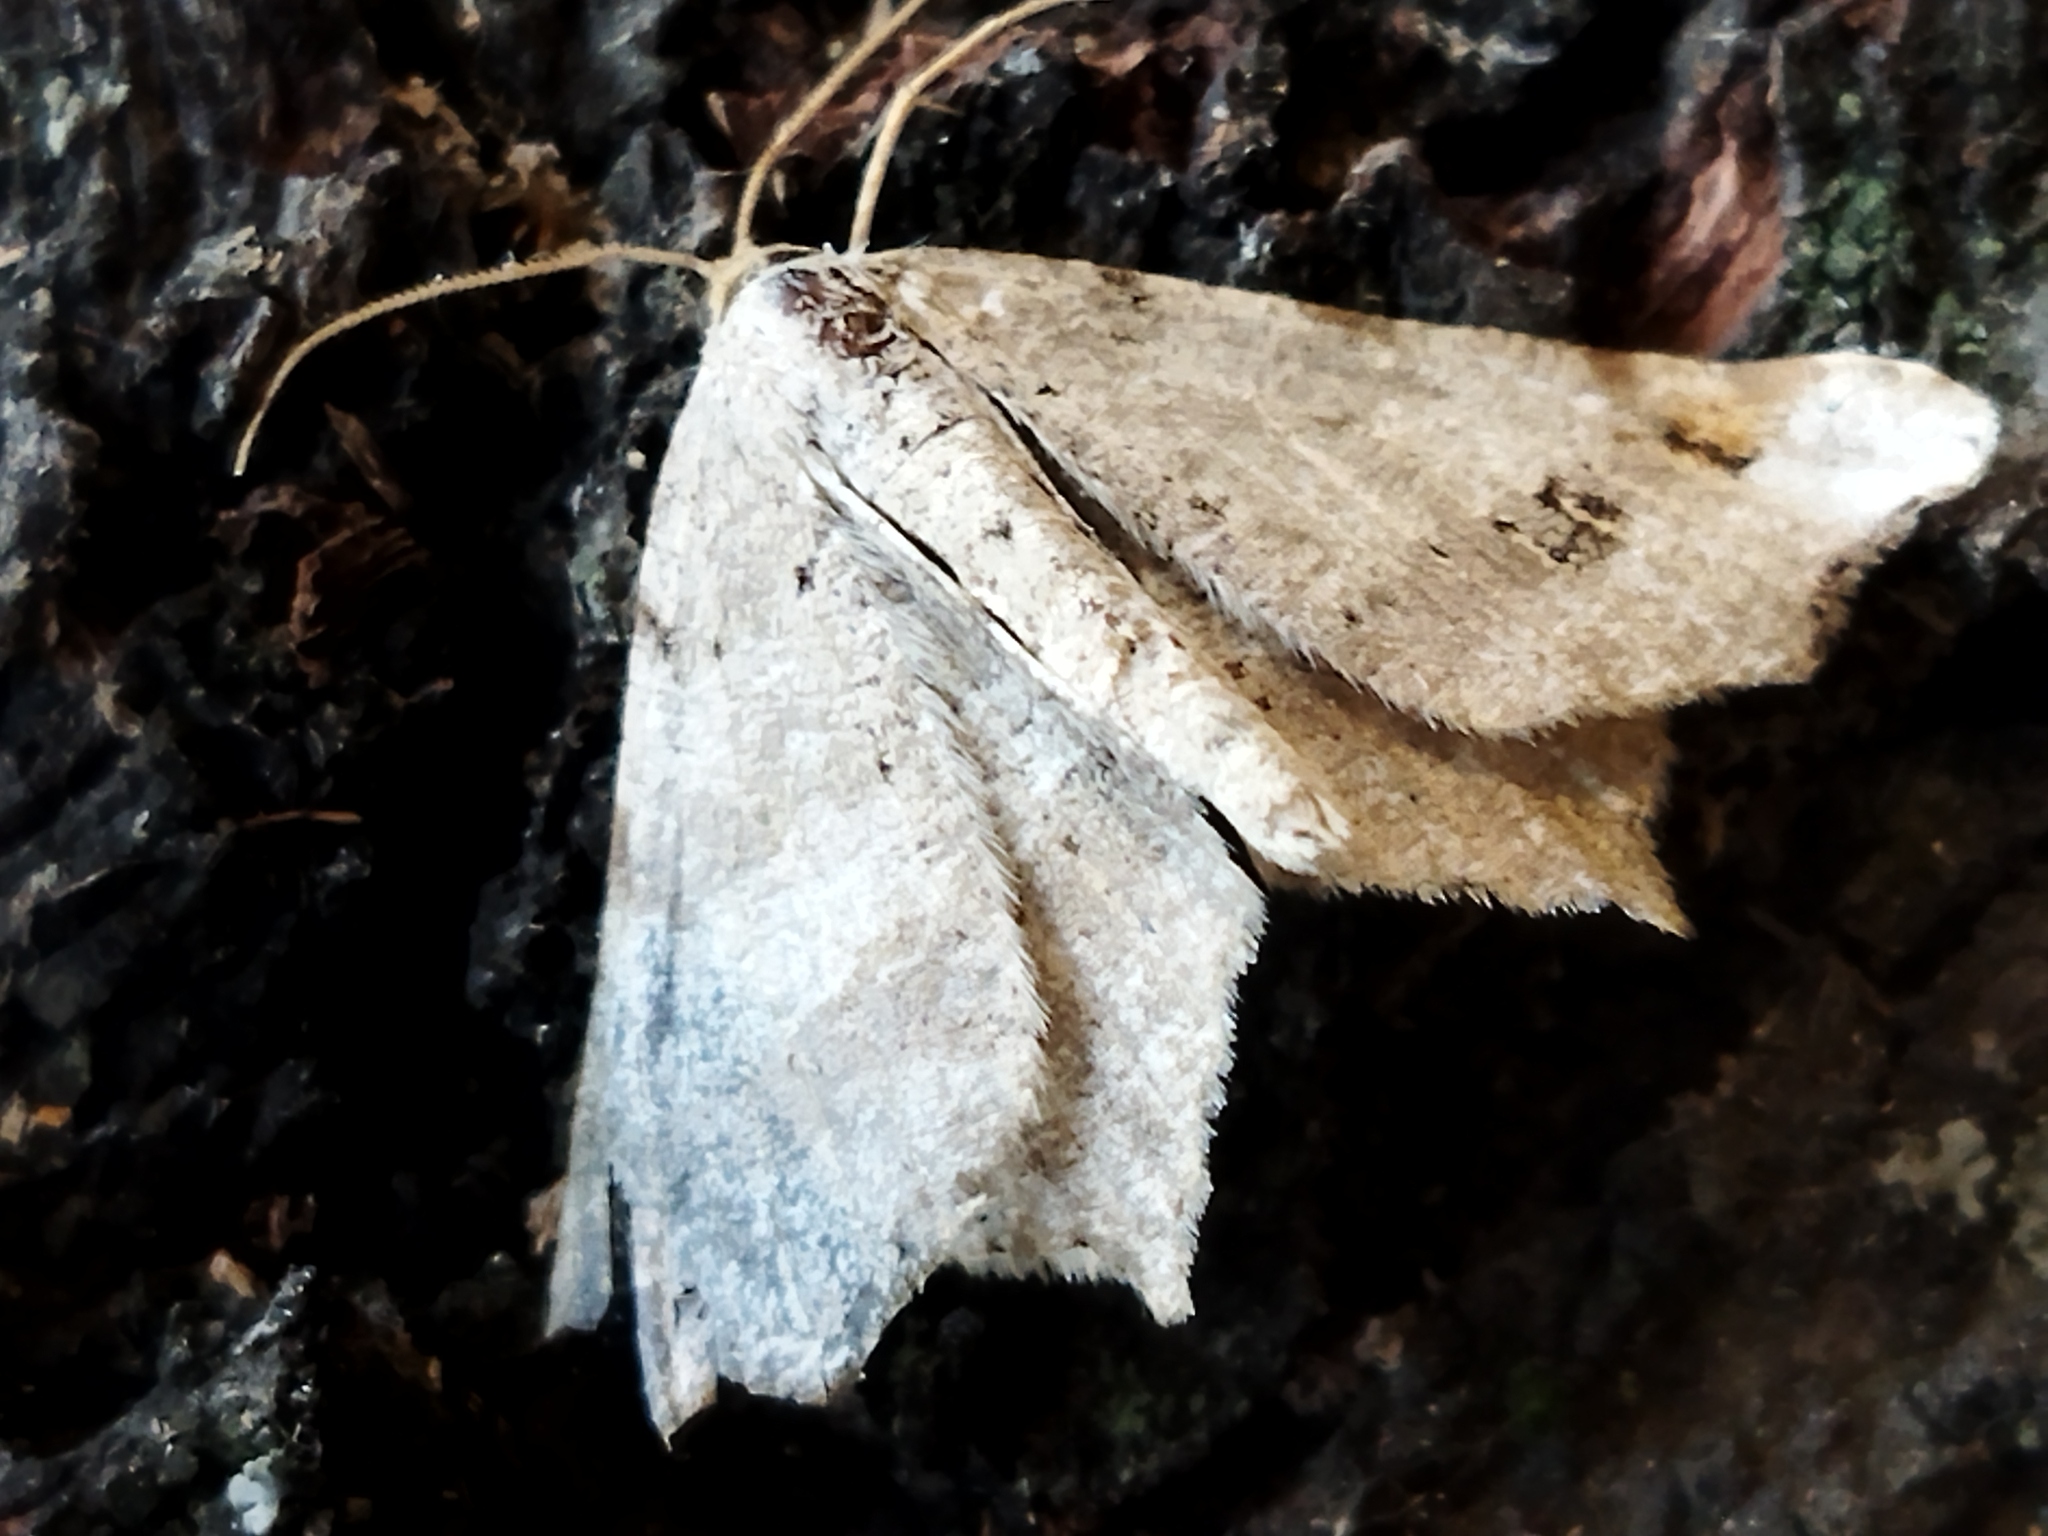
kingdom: Animalia
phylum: Arthropoda
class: Insecta
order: Lepidoptera
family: Geometridae
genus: Macaria
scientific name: Macaria alternata
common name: Sharp-angled peacock
